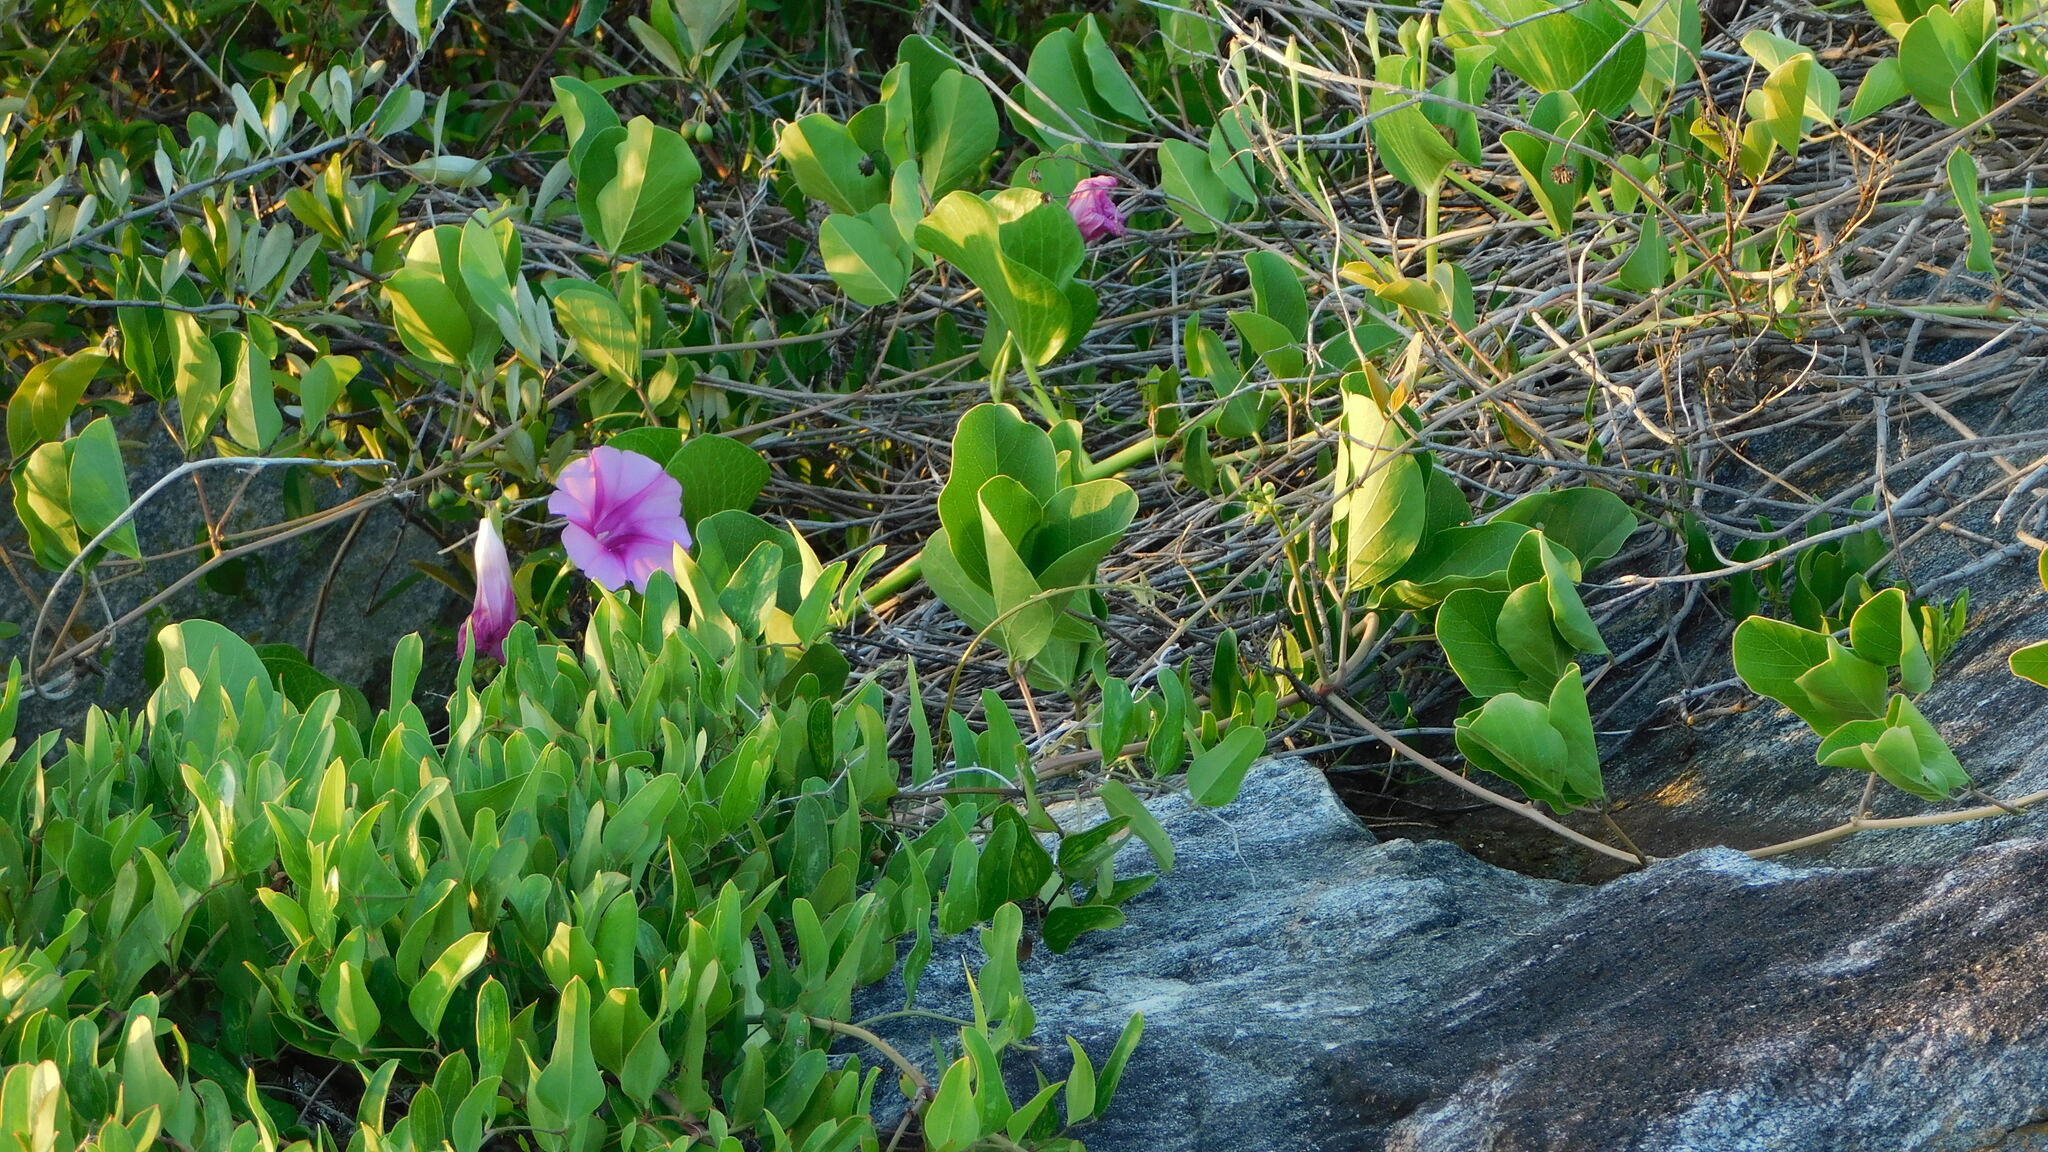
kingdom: Plantae
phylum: Tracheophyta
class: Magnoliopsida
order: Solanales
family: Convolvulaceae
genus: Ipomoea
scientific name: Ipomoea pes-caprae
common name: Beach morning glory
